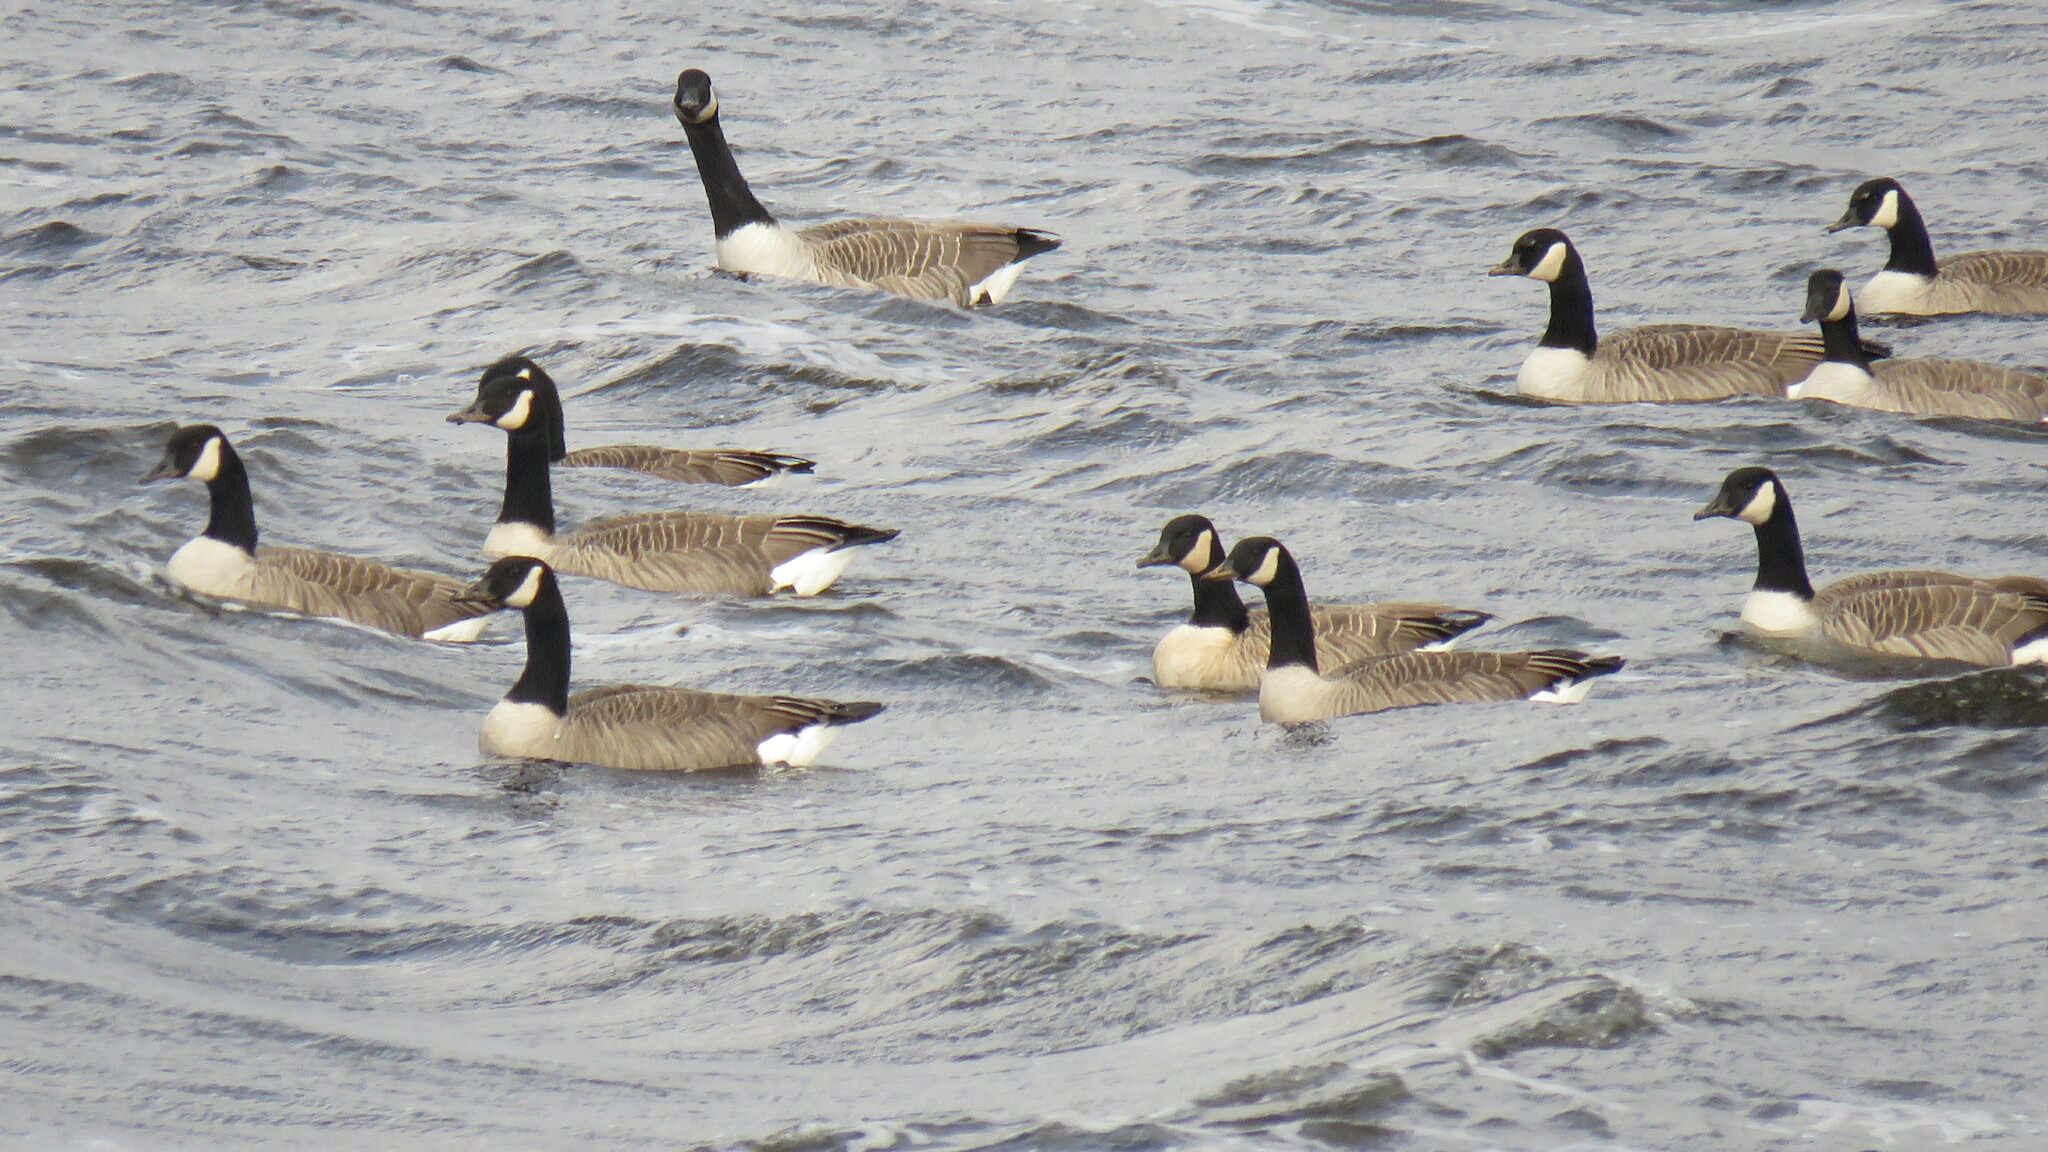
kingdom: Animalia
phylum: Chordata
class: Aves
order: Anseriformes
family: Anatidae
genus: Branta
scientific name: Branta canadensis
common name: Canada goose
